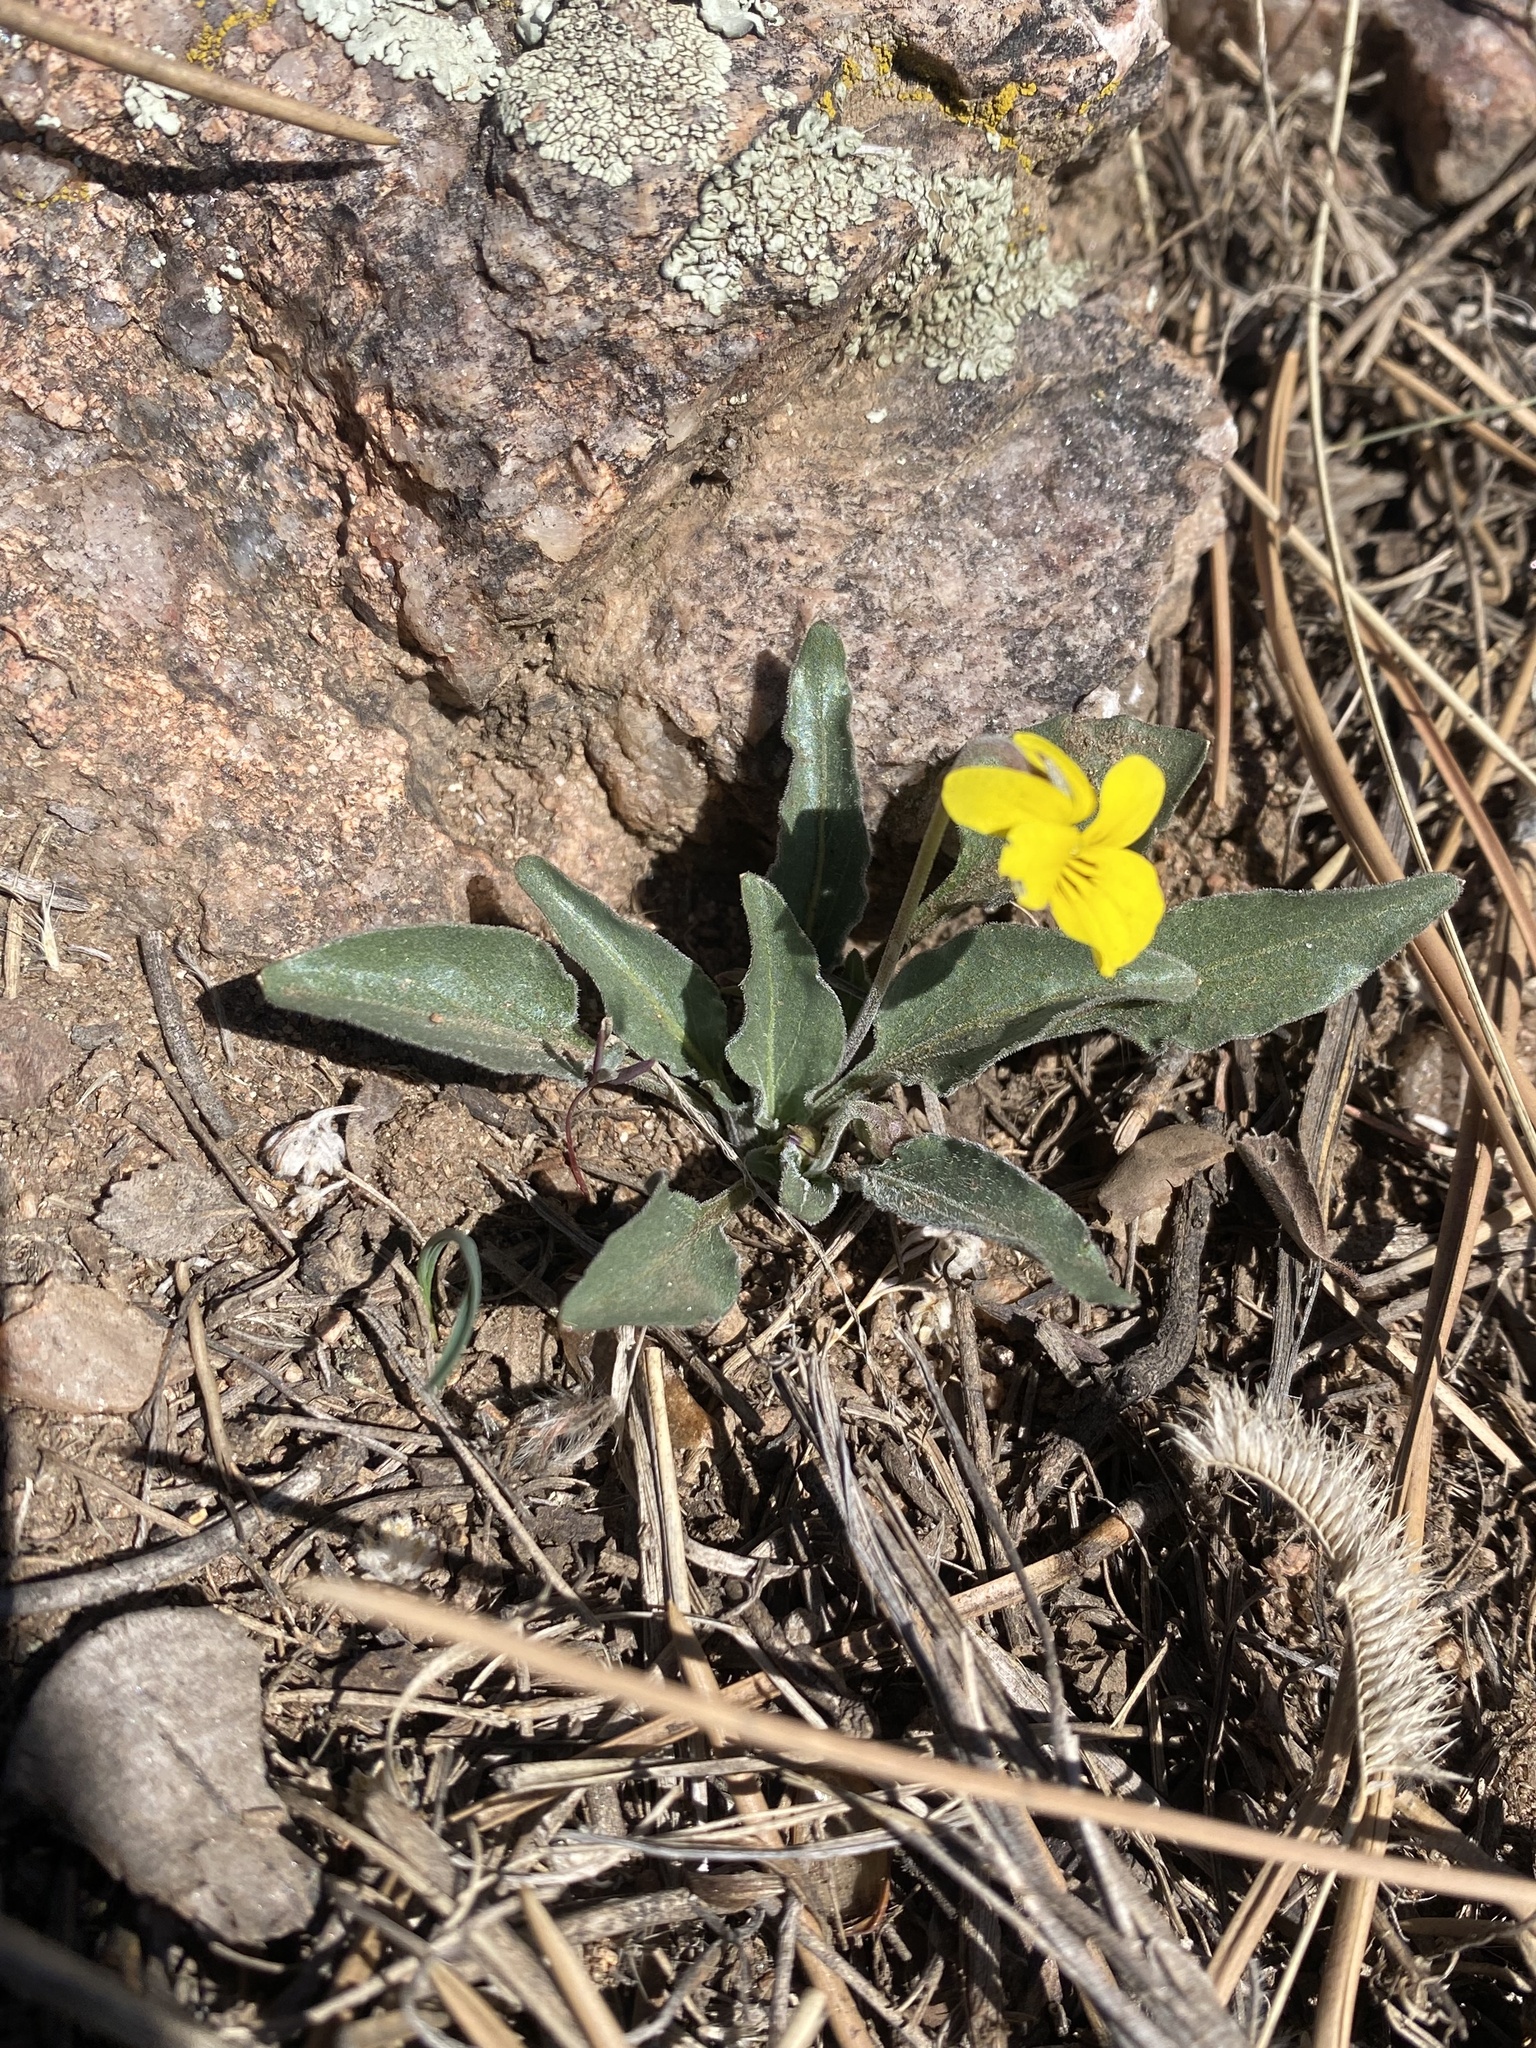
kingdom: Plantae
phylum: Tracheophyta
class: Magnoliopsida
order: Malpighiales
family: Violaceae
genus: Viola
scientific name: Viola nuttallii
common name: Yellow prairie violet
